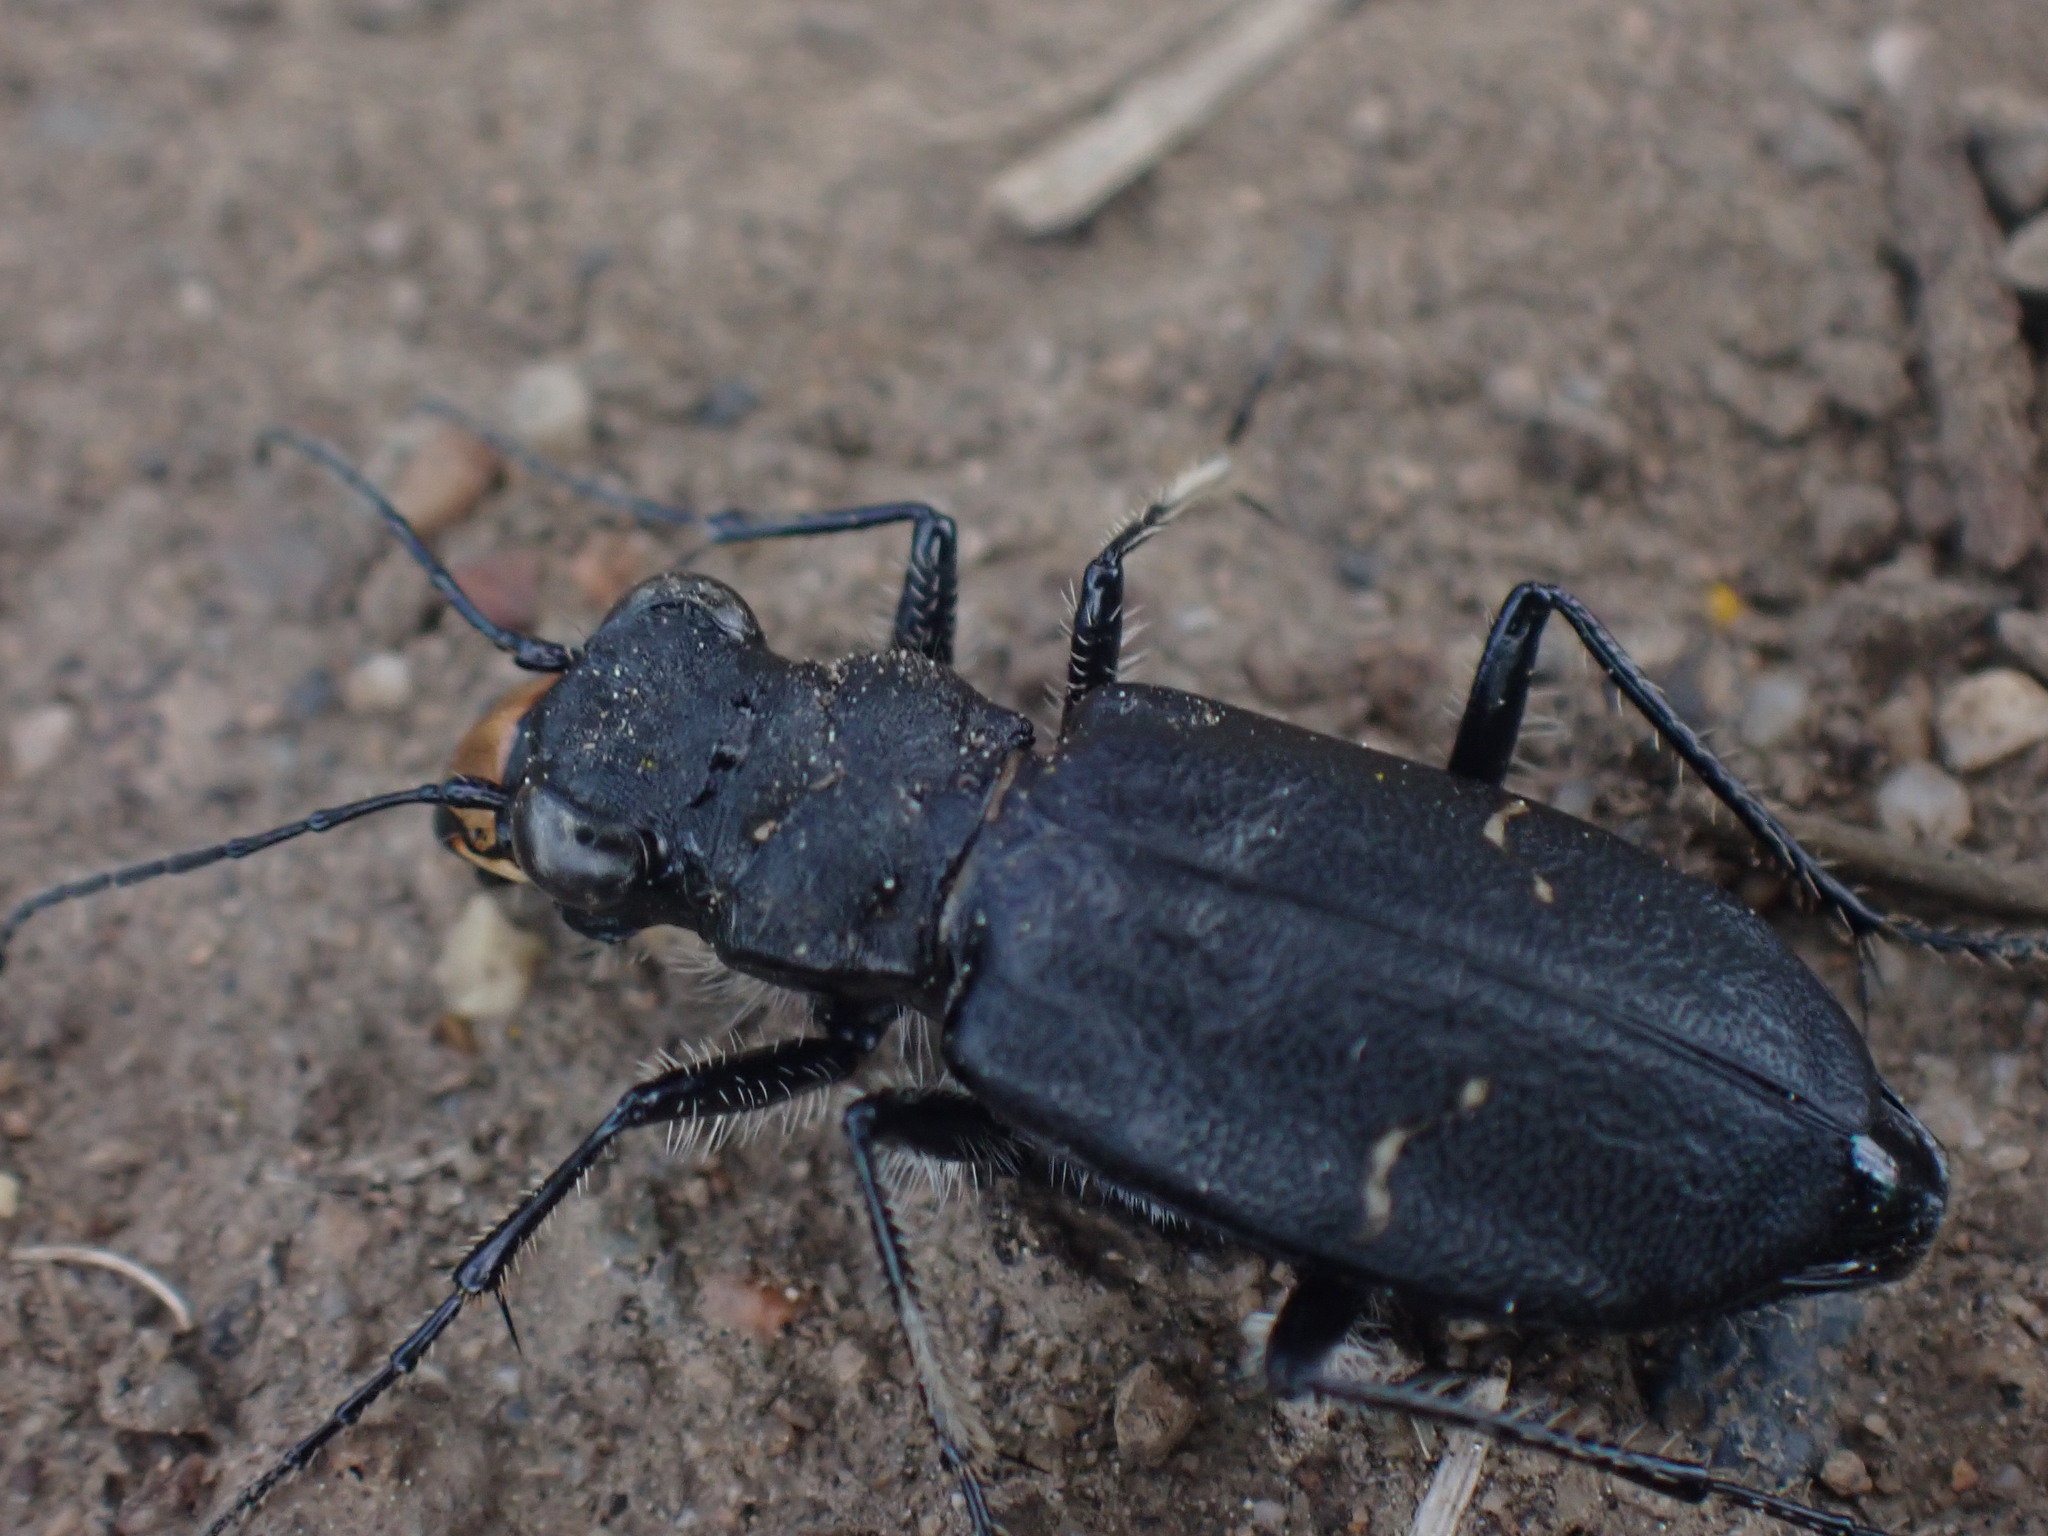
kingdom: Animalia
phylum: Arthropoda
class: Insecta
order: Coleoptera
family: Carabidae
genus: Cicindela
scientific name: Cicindela longilabris
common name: Boreal long-lipped tiger beetle
